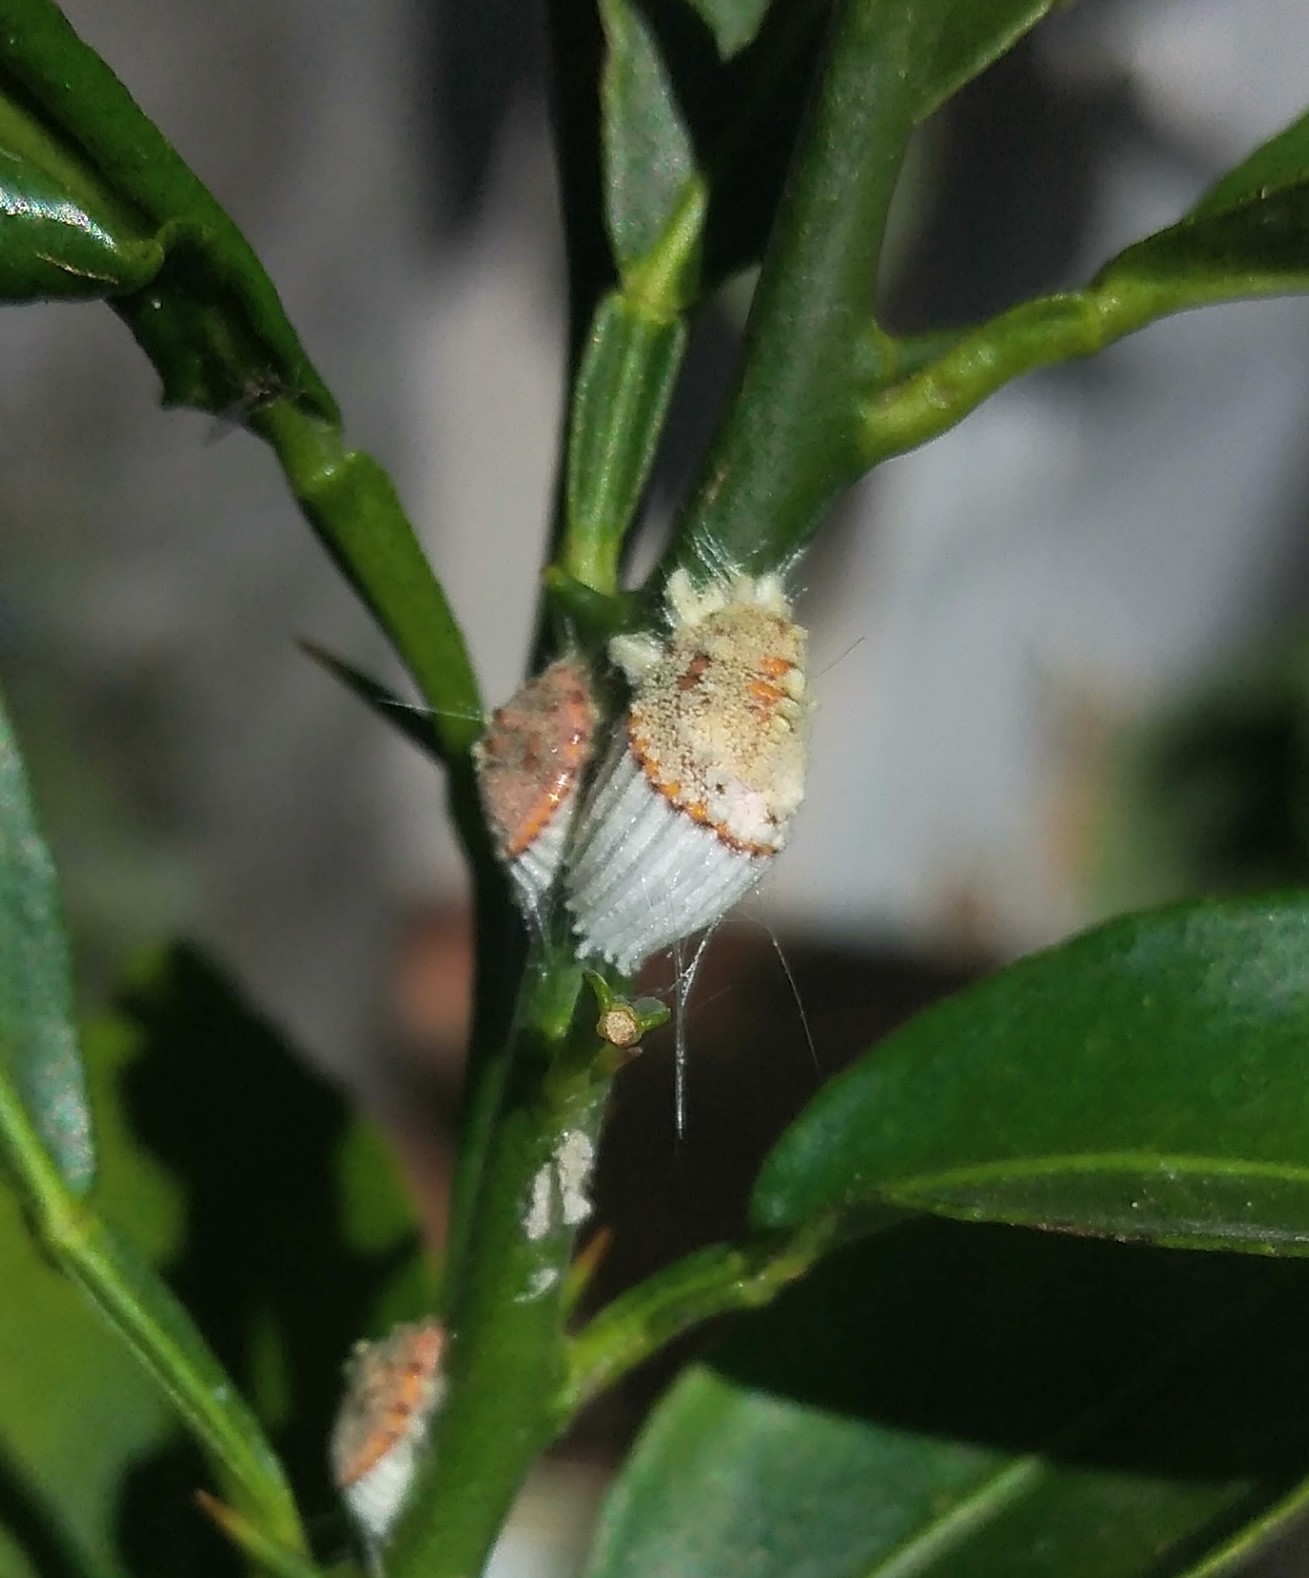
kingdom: Animalia
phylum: Arthropoda
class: Insecta
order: Hemiptera
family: Margarodidae
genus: Icerya
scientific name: Icerya purchasi
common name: Cottony cushion scale
